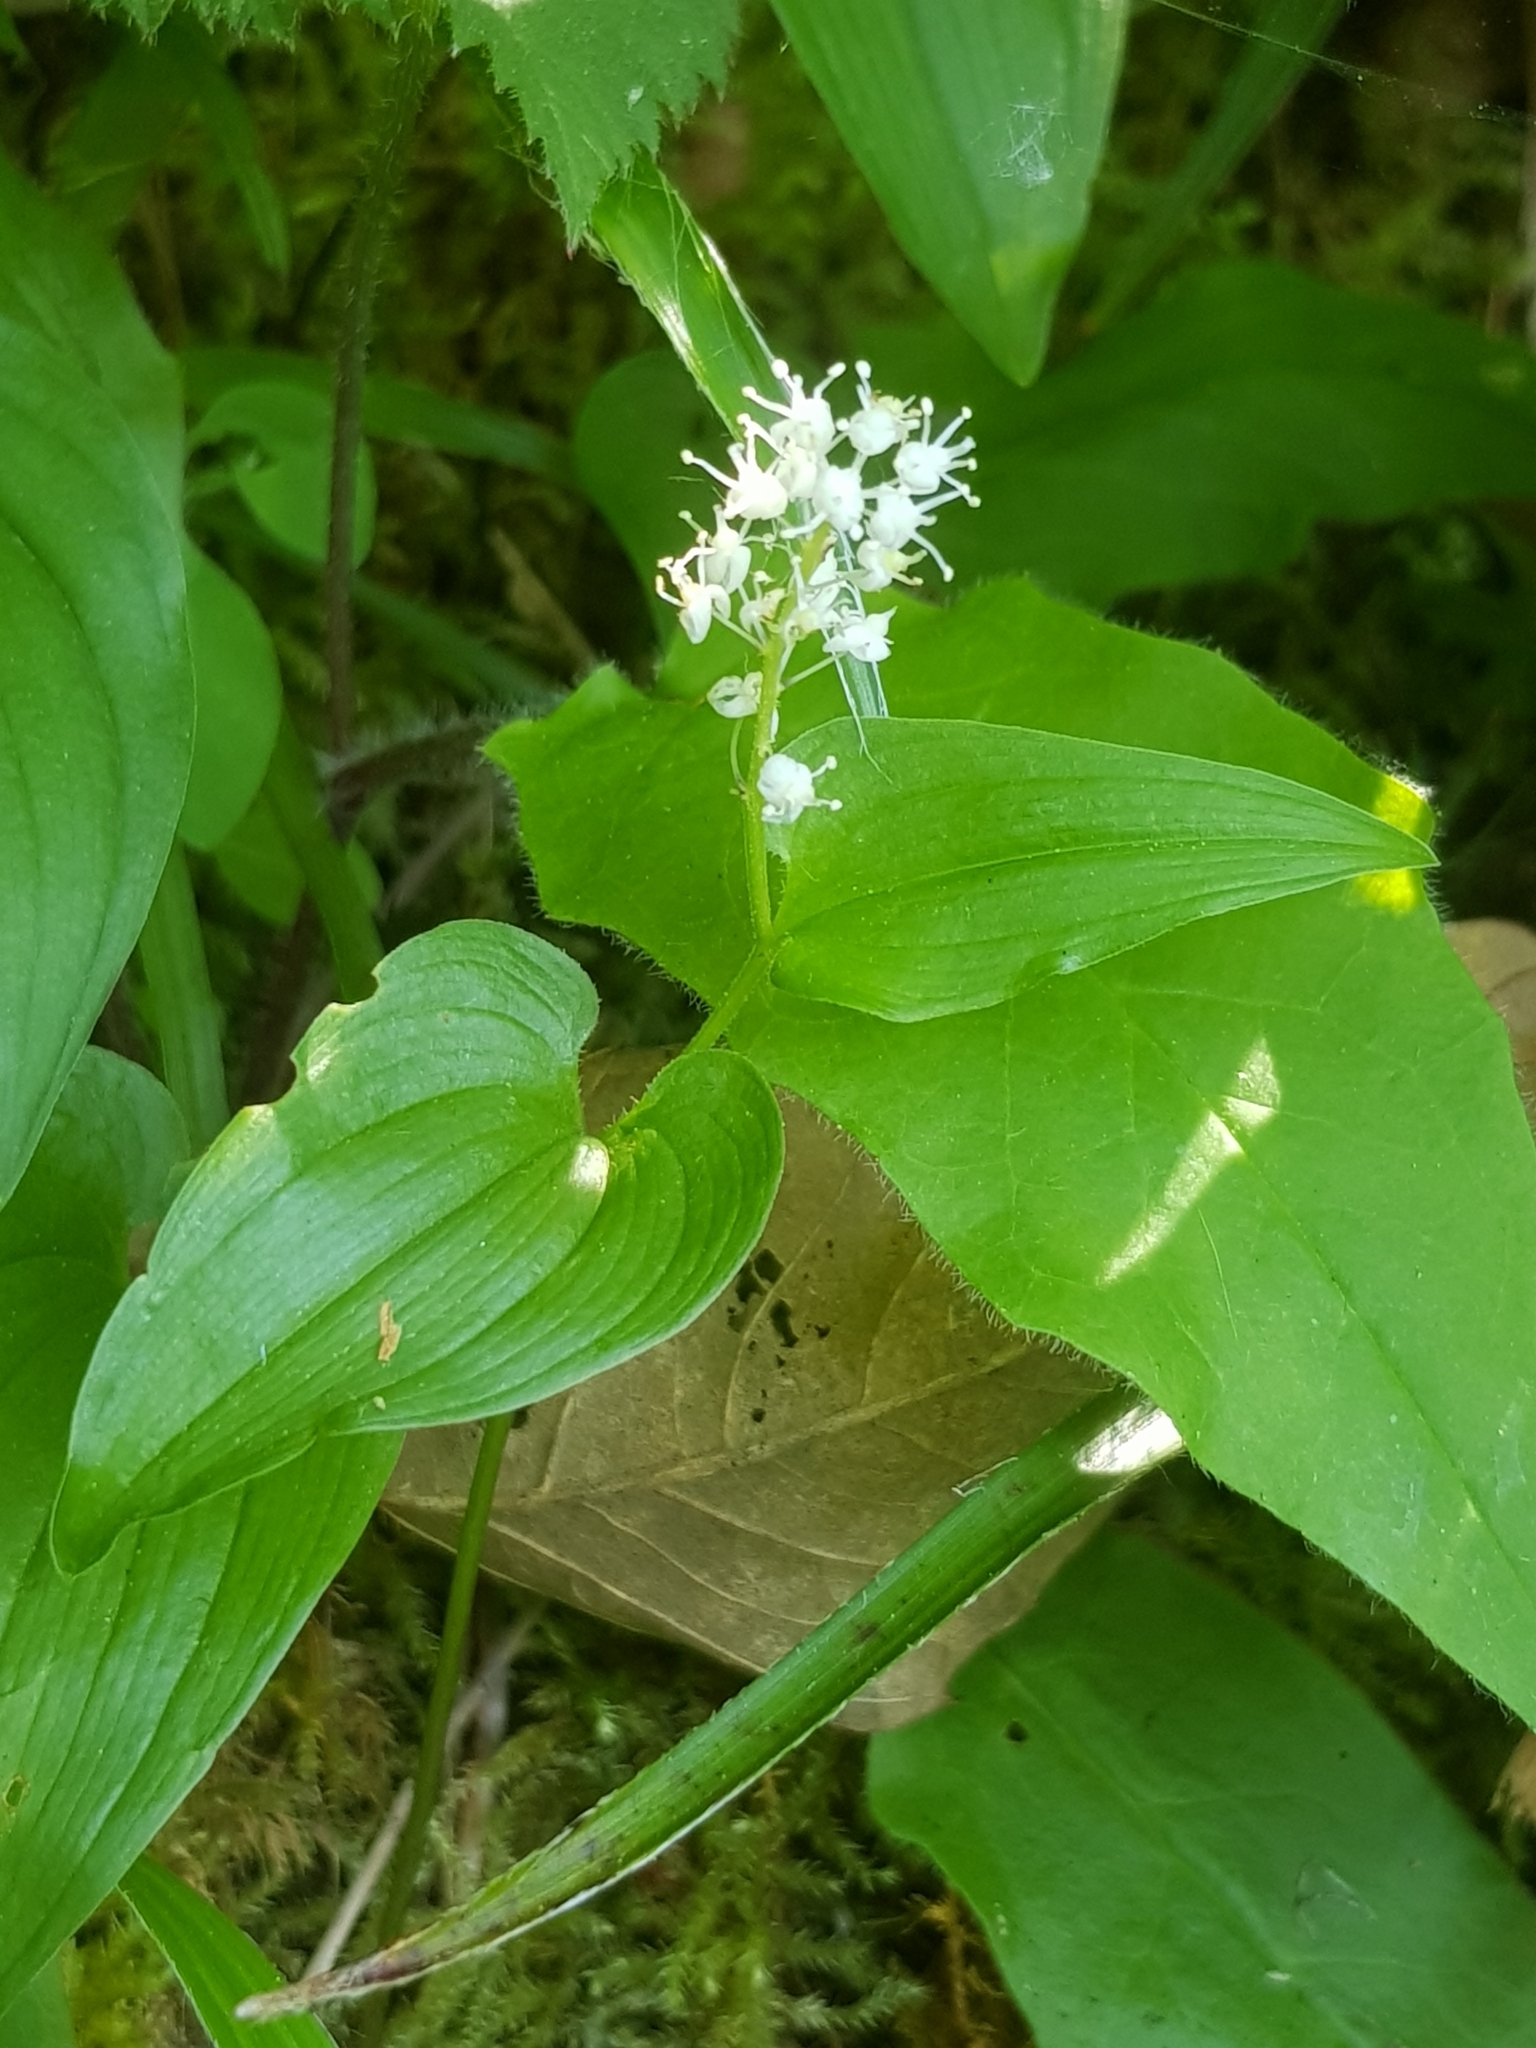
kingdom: Plantae
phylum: Tracheophyta
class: Liliopsida
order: Asparagales
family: Asparagaceae
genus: Maianthemum
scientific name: Maianthemum bifolium
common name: May lily
